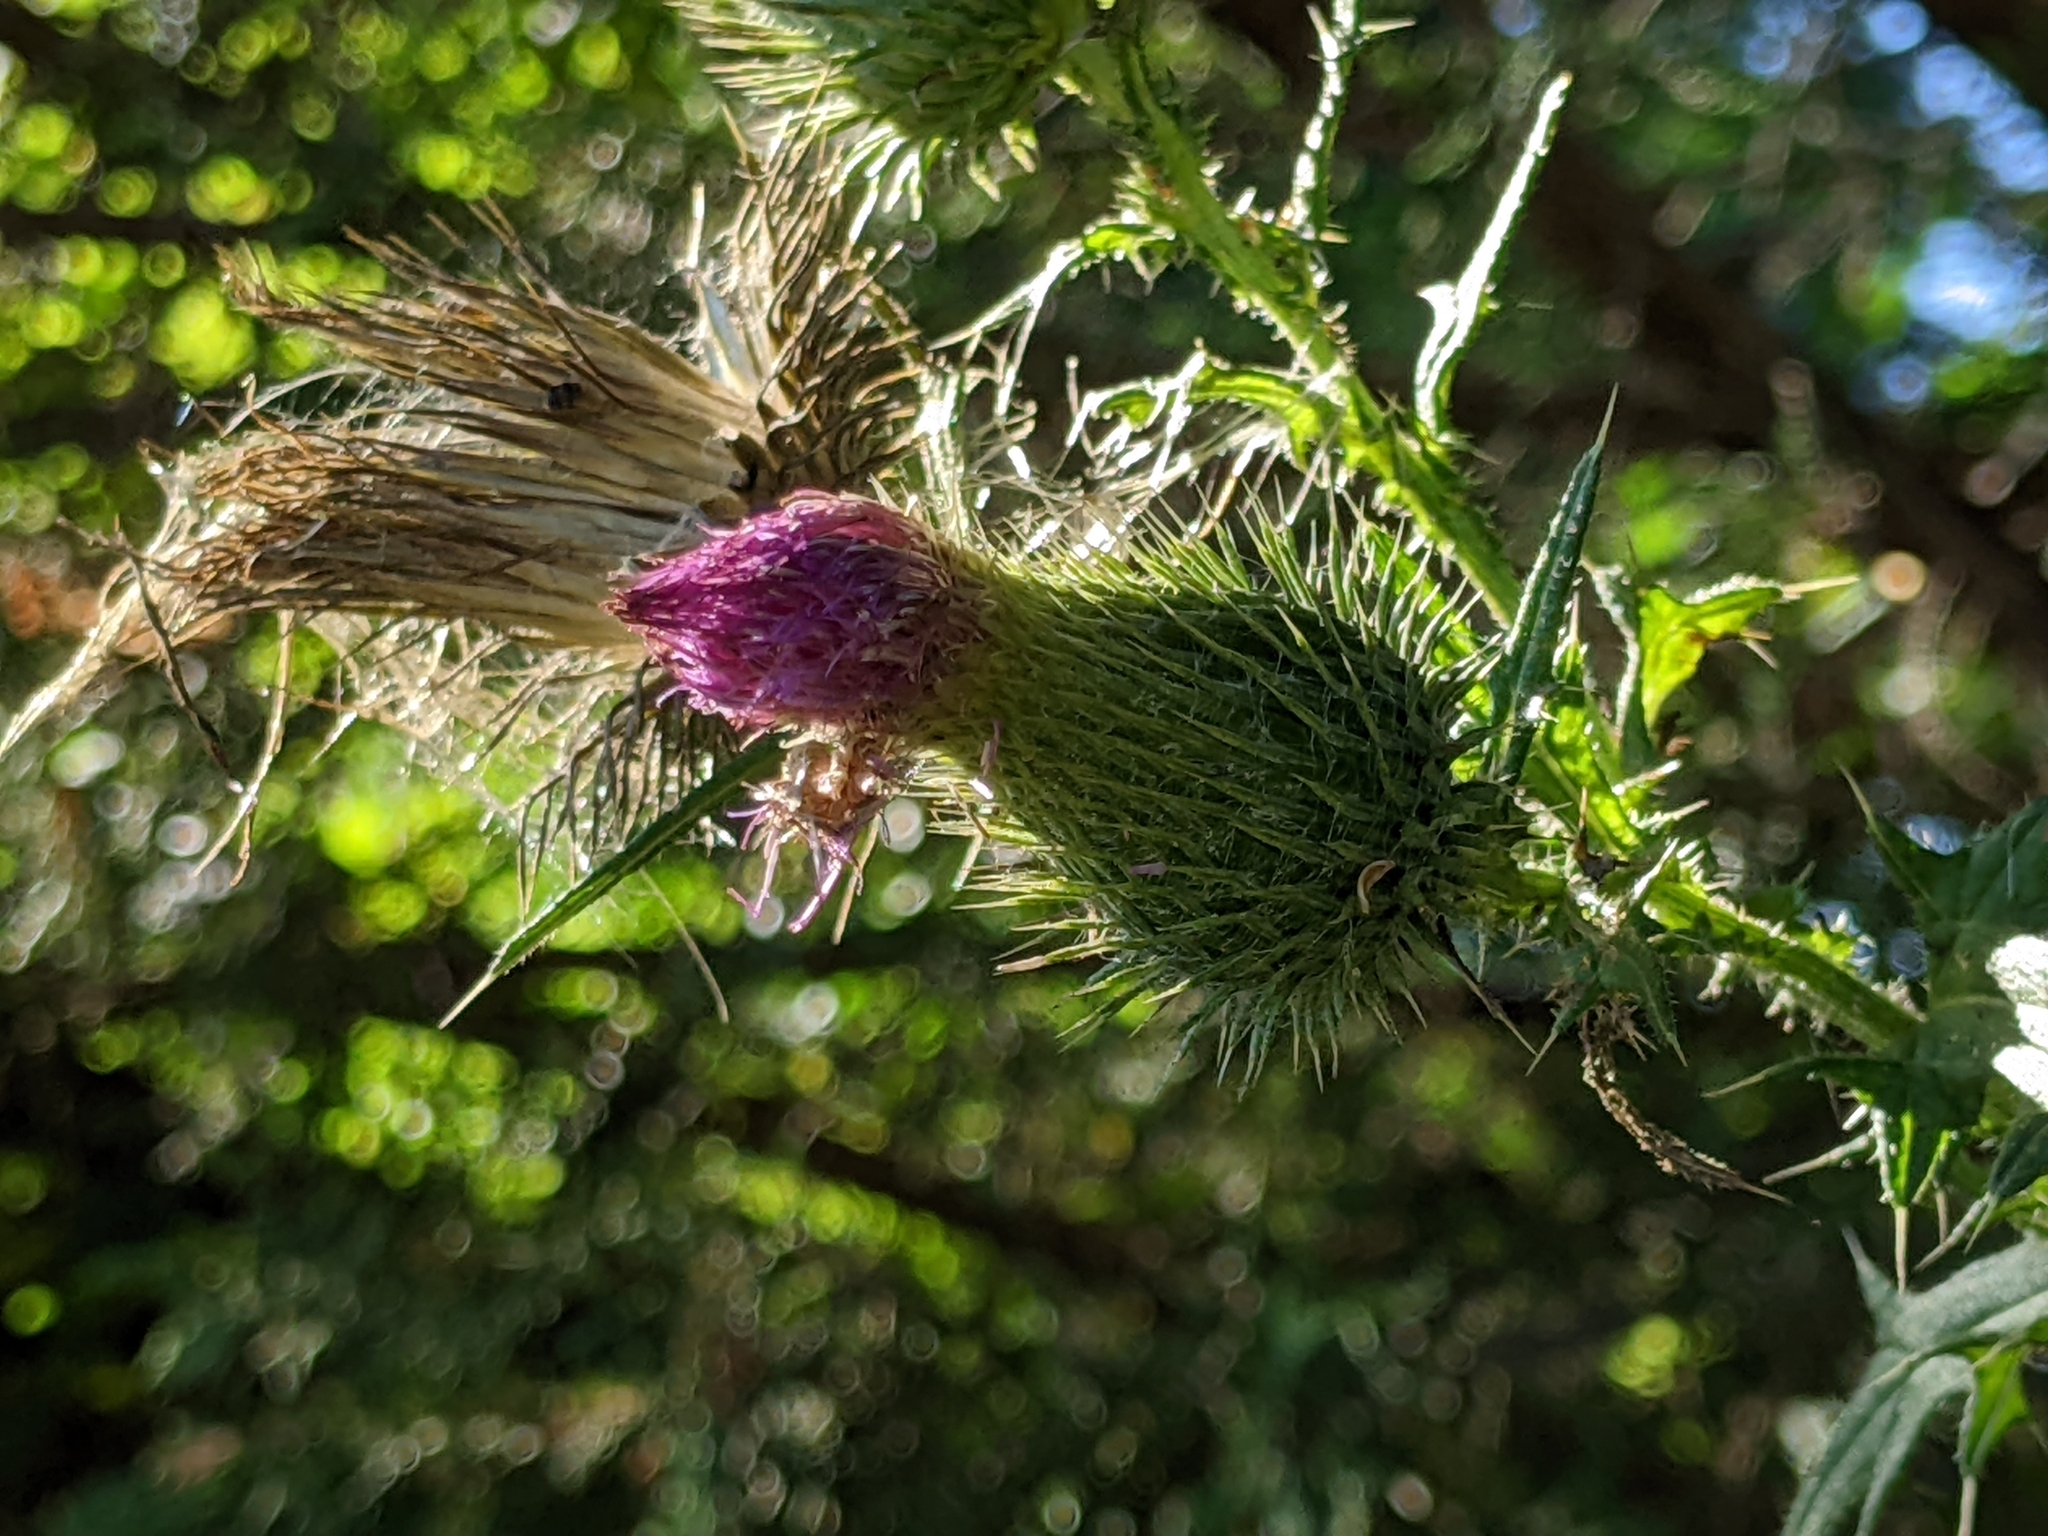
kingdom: Plantae
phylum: Tracheophyta
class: Magnoliopsida
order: Asterales
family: Asteraceae
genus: Cirsium
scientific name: Cirsium vulgare
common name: Bull thistle
